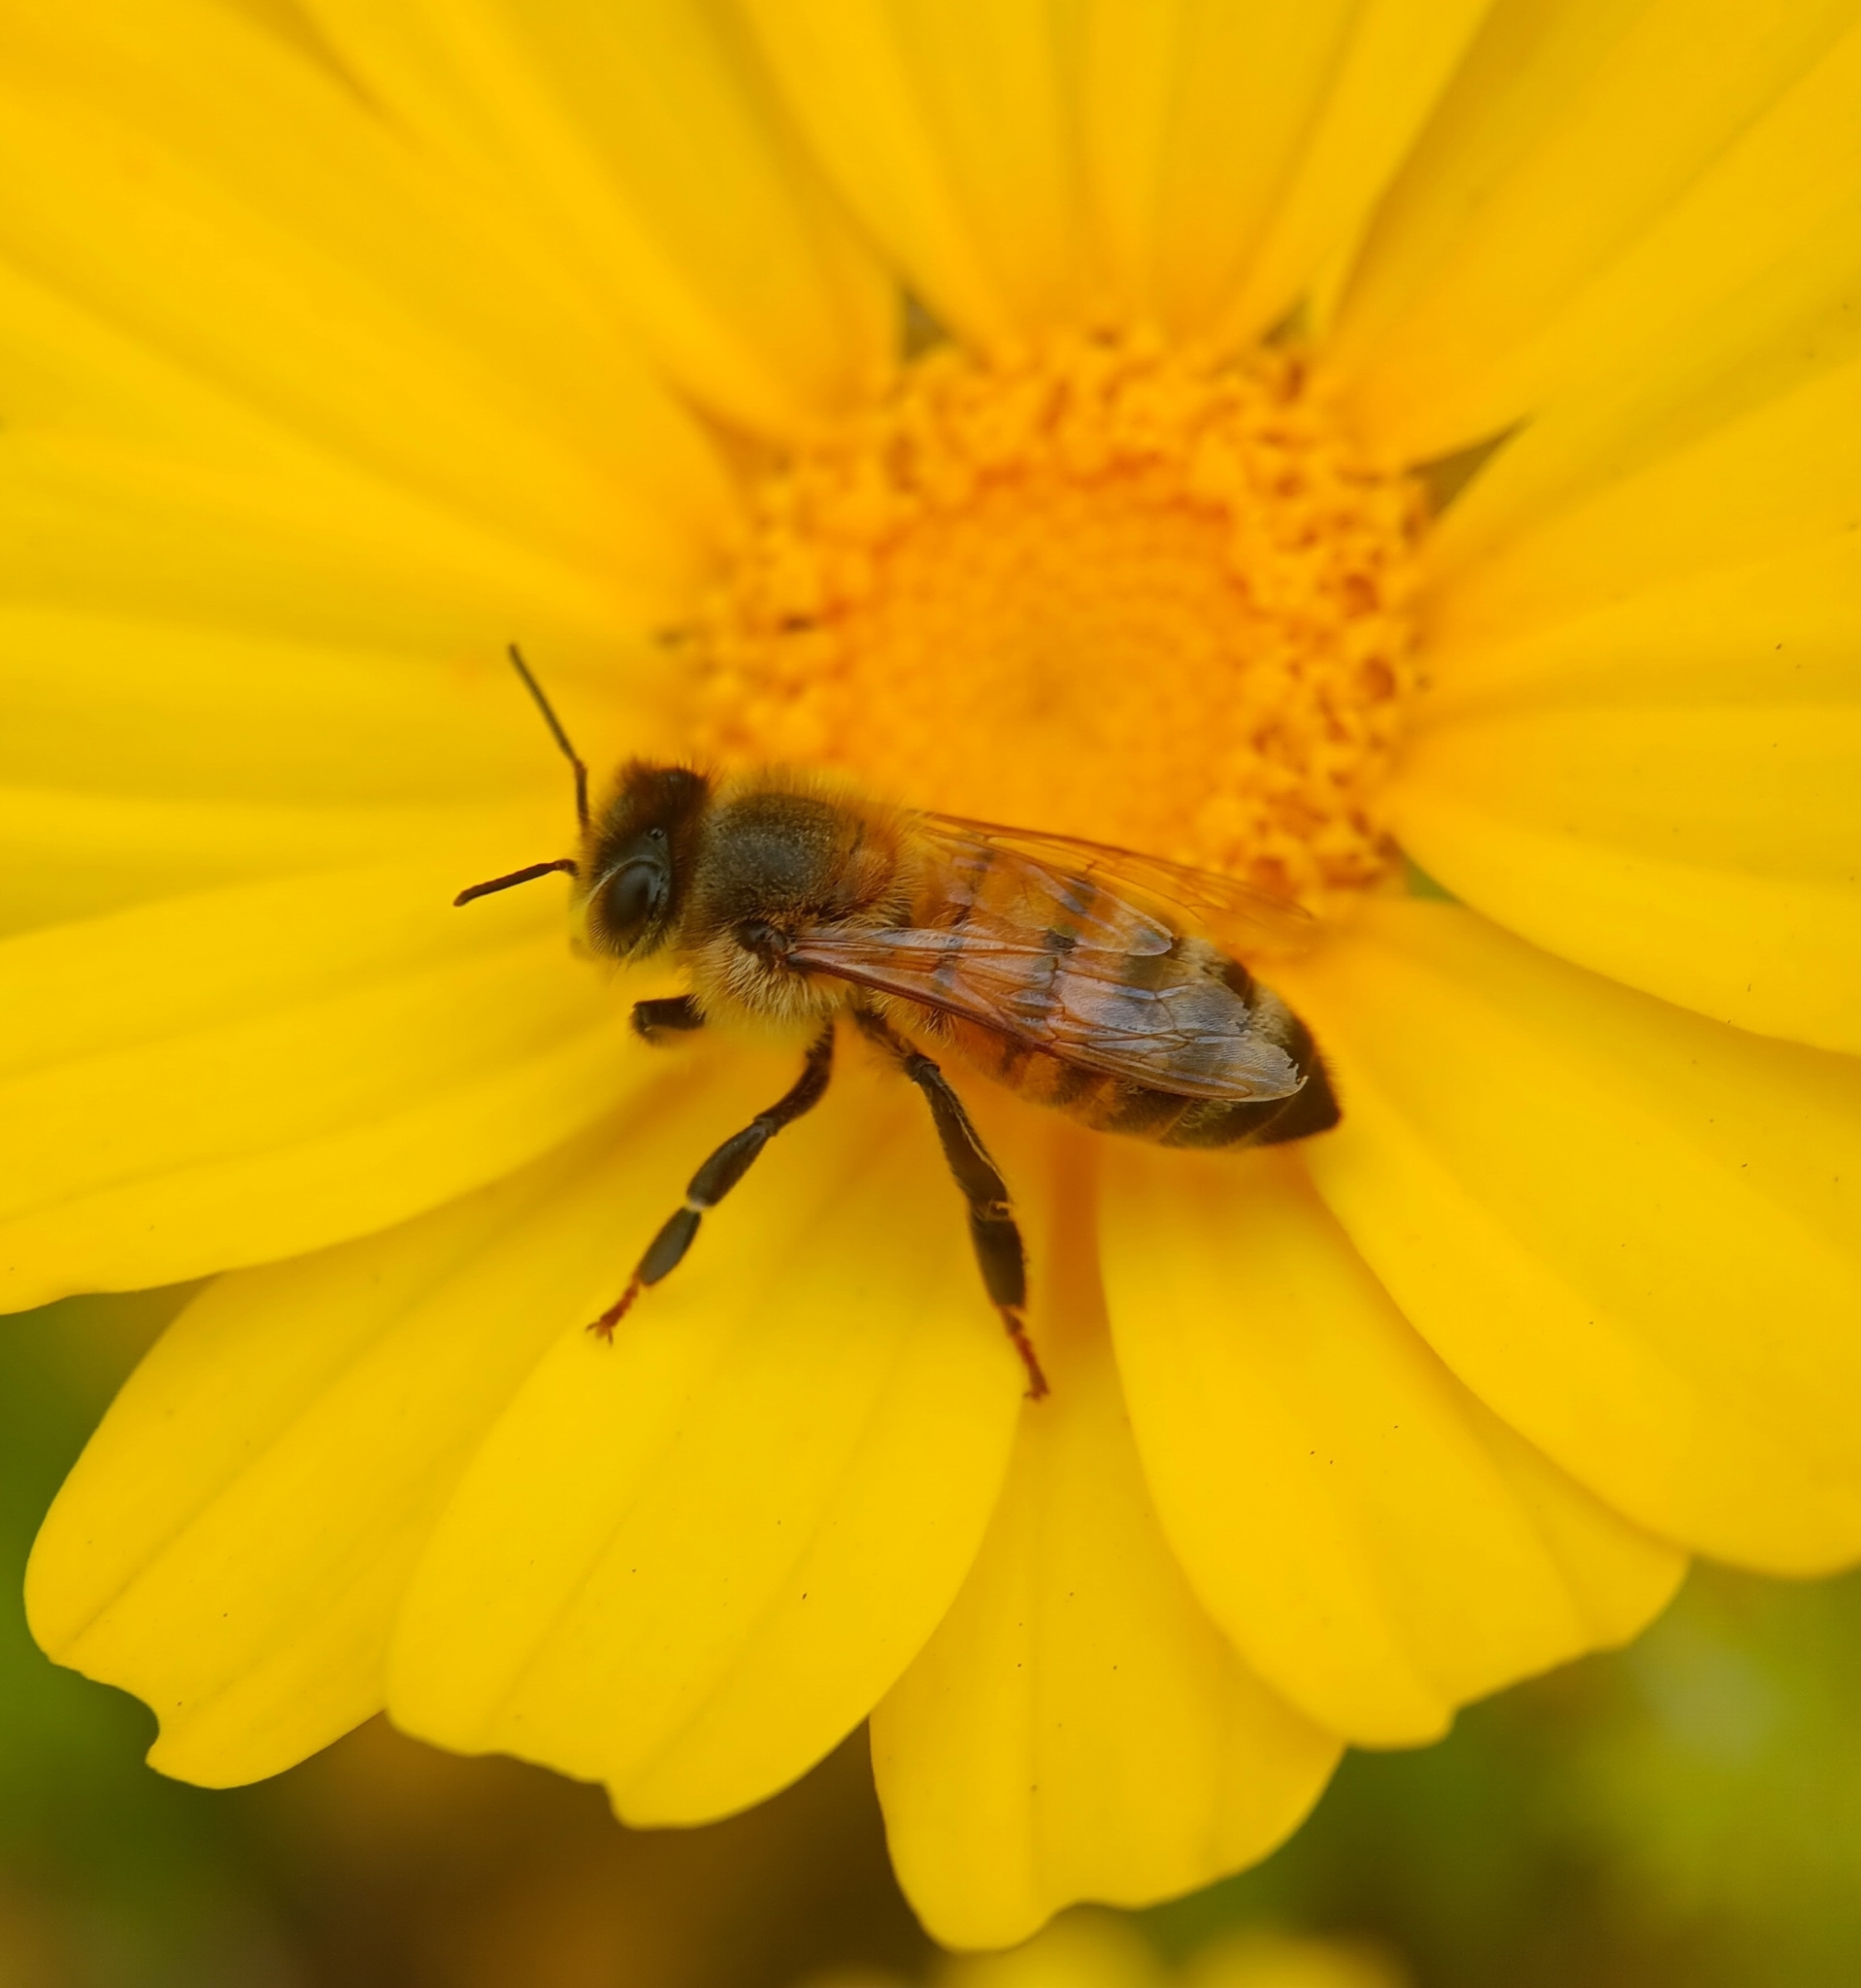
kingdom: Animalia
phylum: Arthropoda
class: Insecta
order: Hymenoptera
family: Apidae
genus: Apis
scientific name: Apis mellifera
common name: Honey bee
